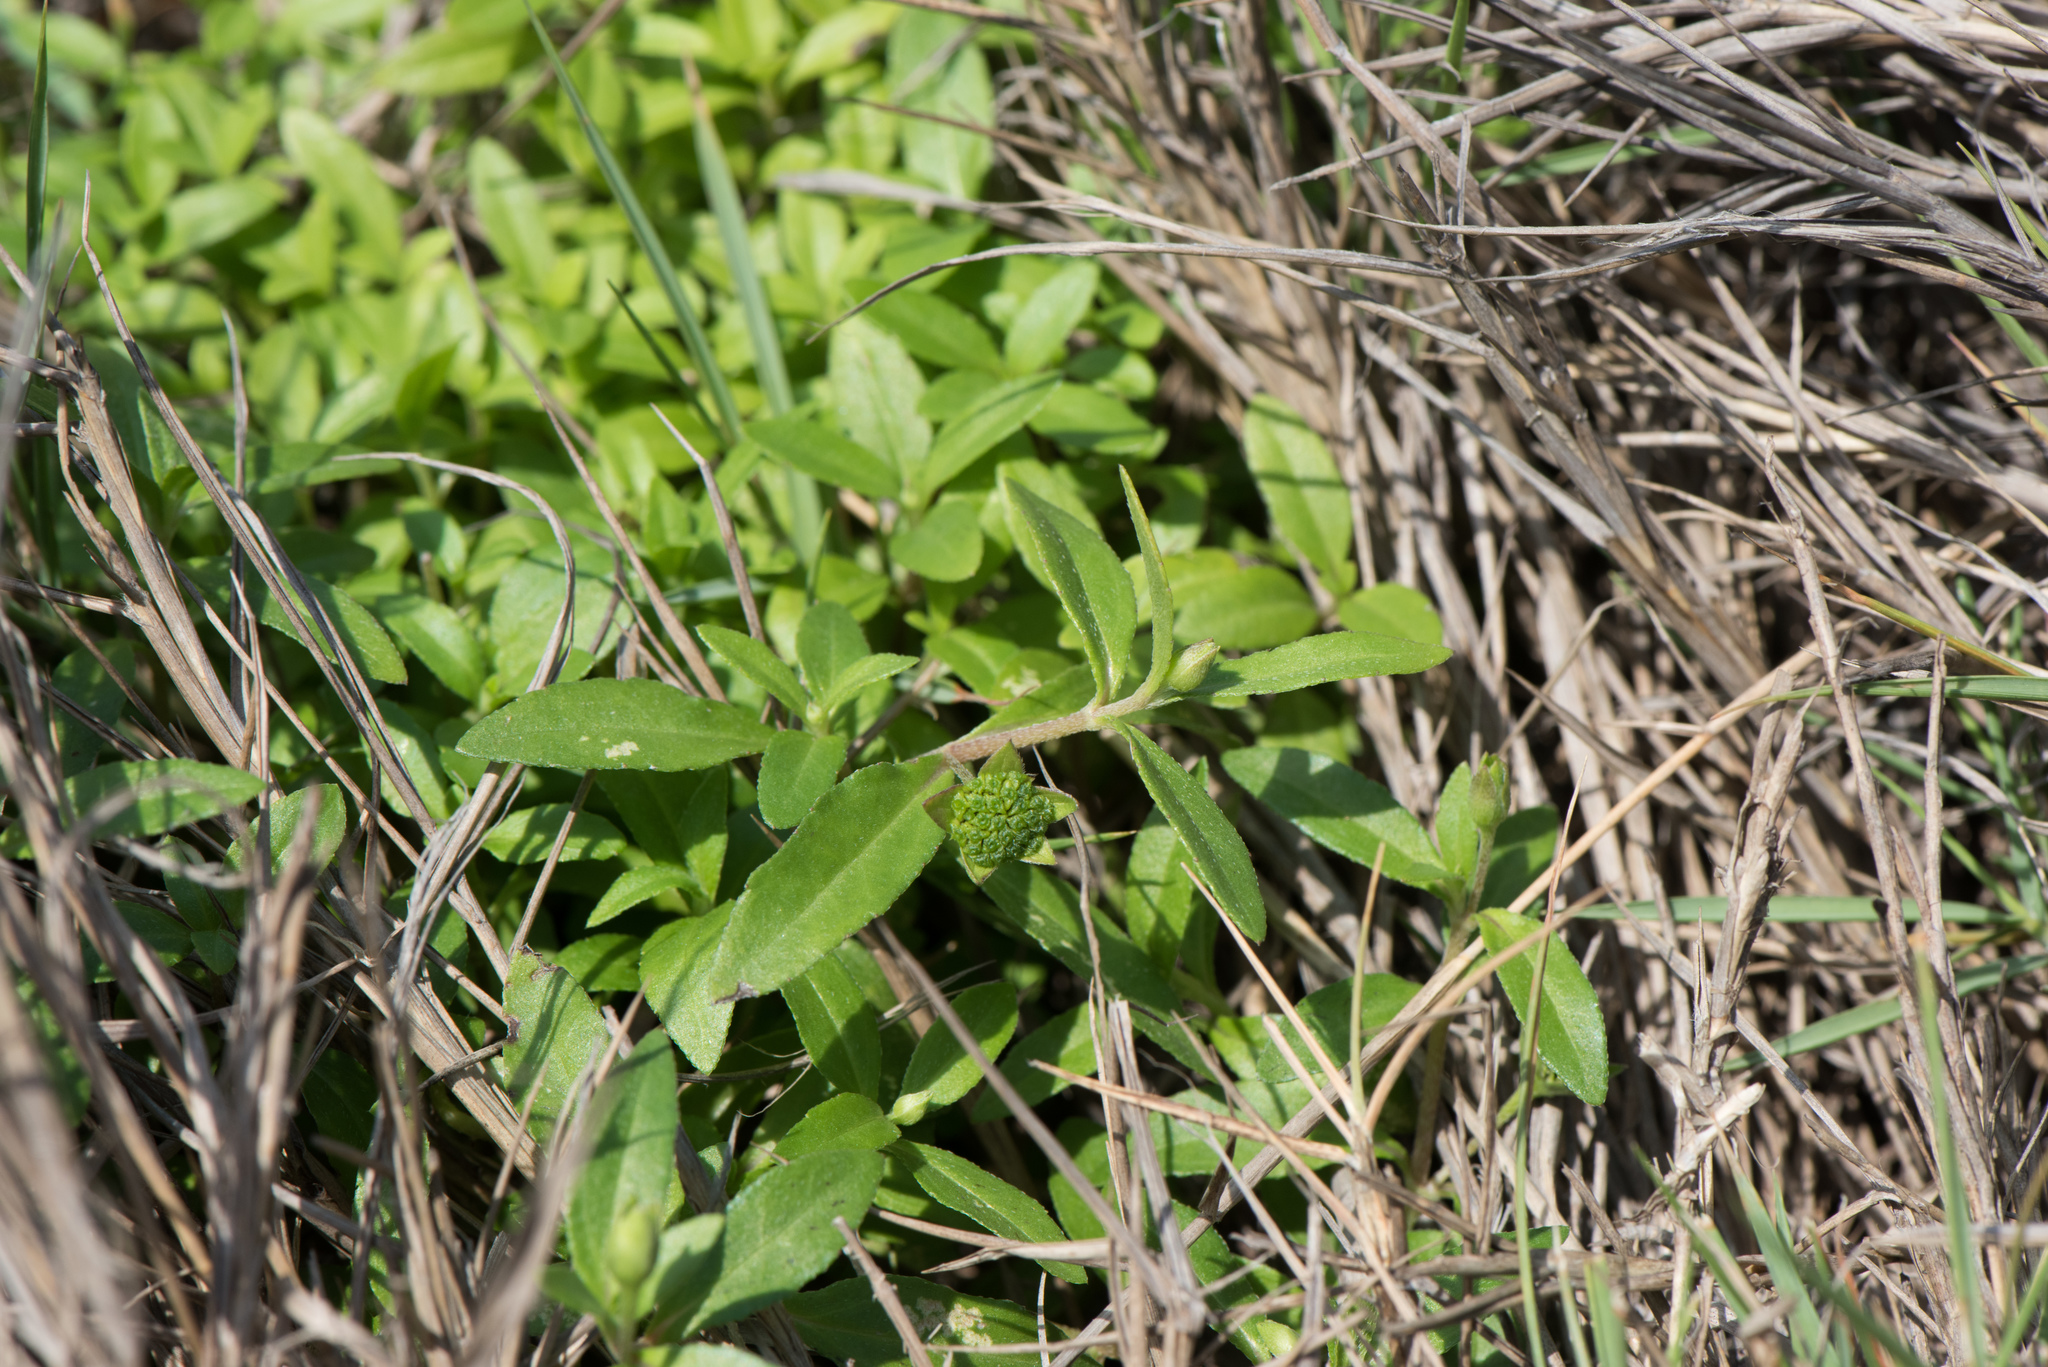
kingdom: Plantae
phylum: Tracheophyta
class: Magnoliopsida
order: Asterales
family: Asteraceae
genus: Eclipta
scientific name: Eclipta prostrata
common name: False daisy
